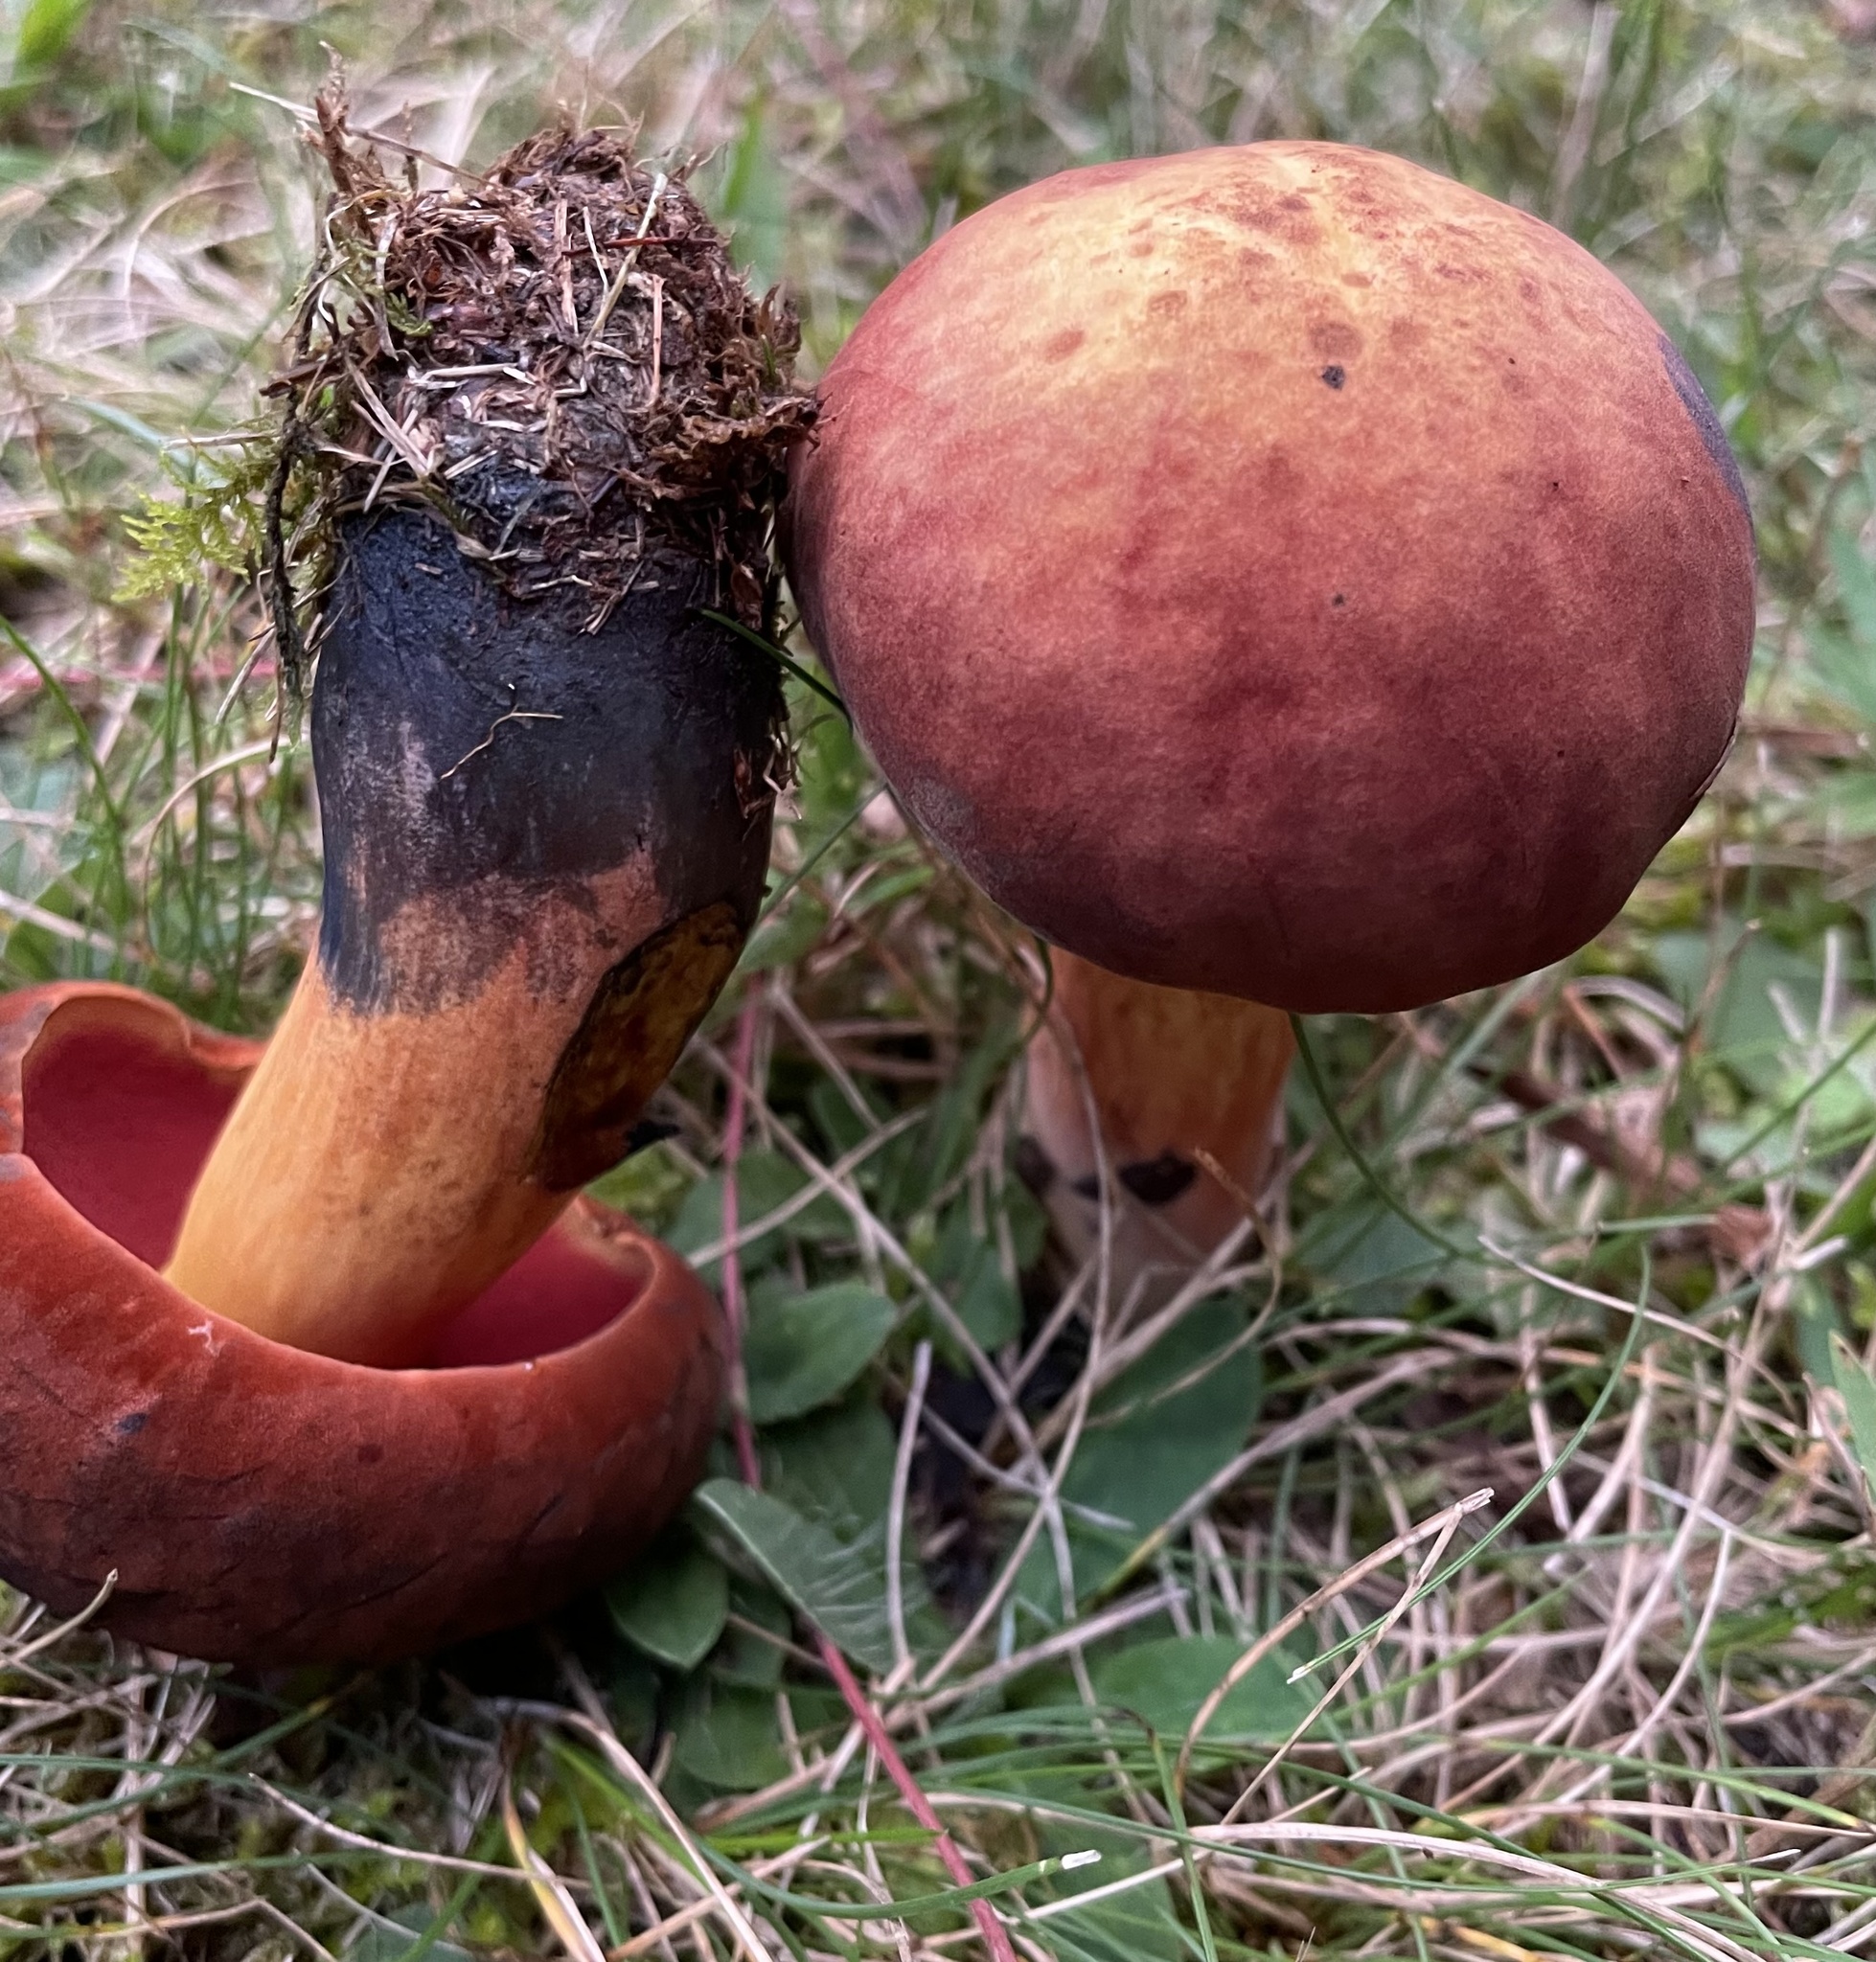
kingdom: Fungi
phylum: Basidiomycota
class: Agaricomycetes
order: Boletales
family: Boletaceae
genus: Boletus
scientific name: Boletus subvelutipes
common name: Red-mouth bolete
